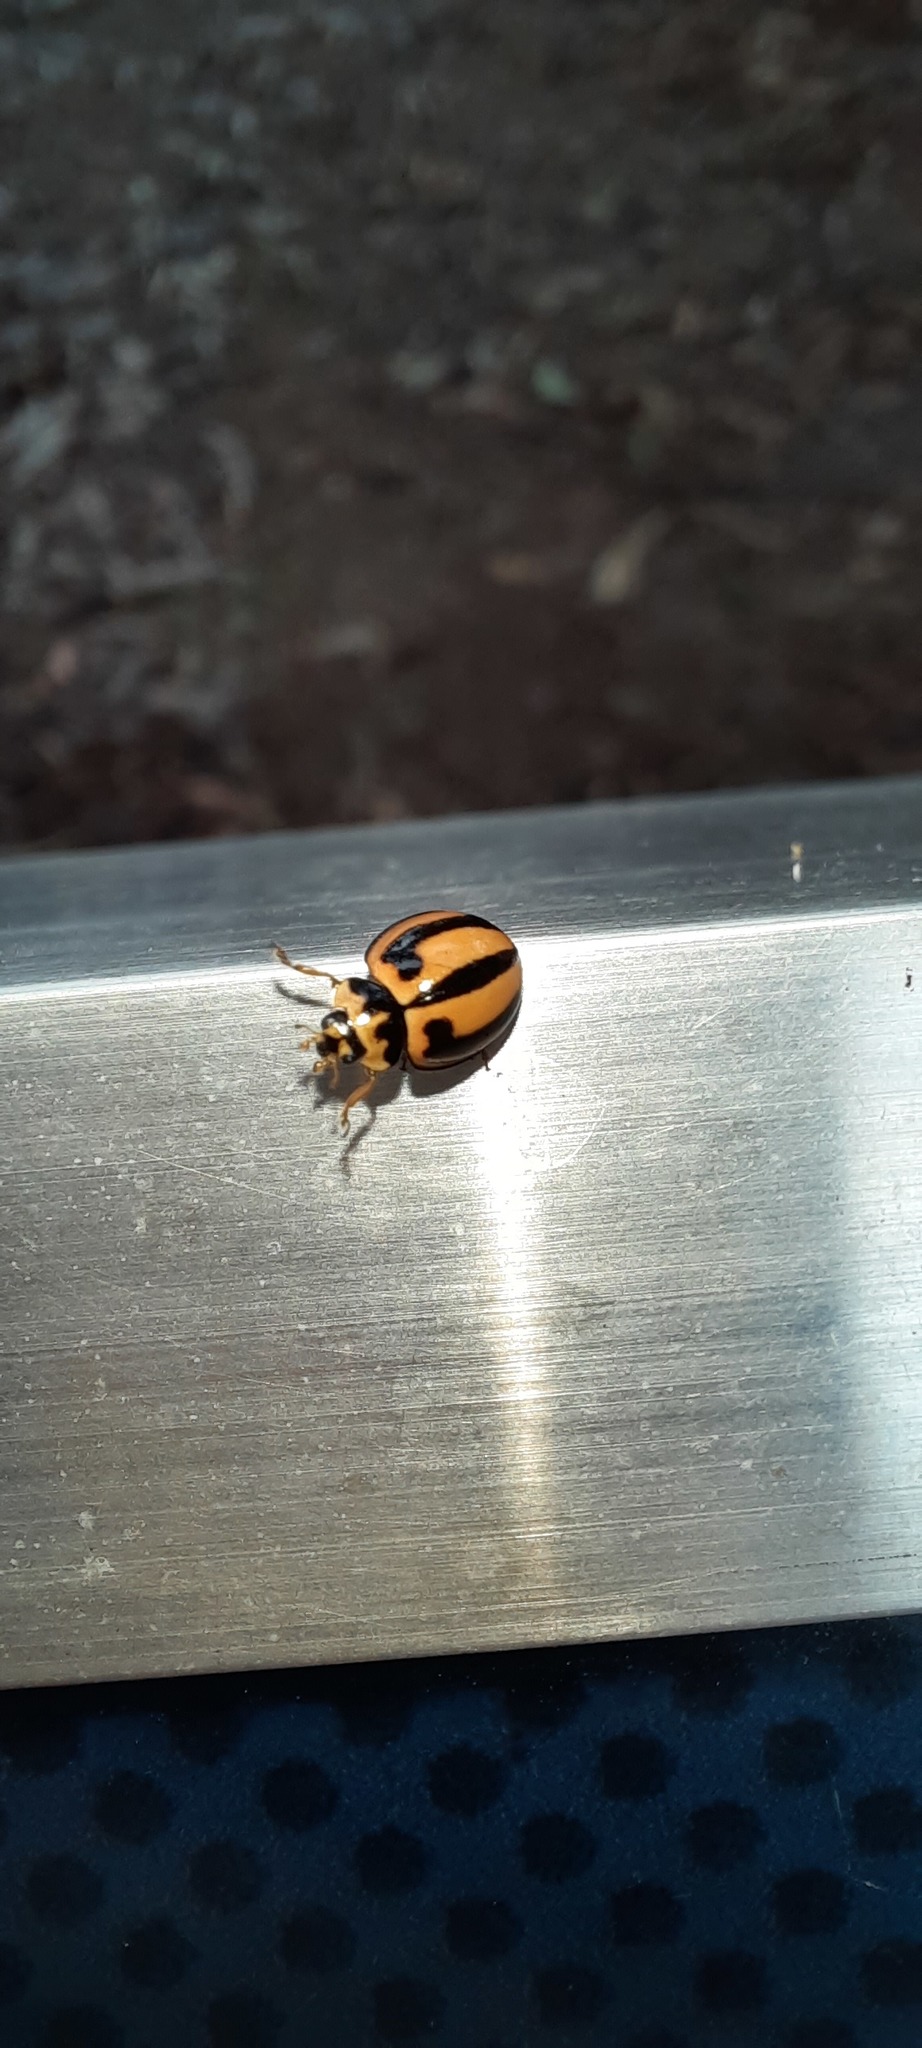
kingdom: Animalia
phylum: Arthropoda
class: Insecta
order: Coleoptera
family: Coccinellidae
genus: Micraspis
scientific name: Micraspis frenata
